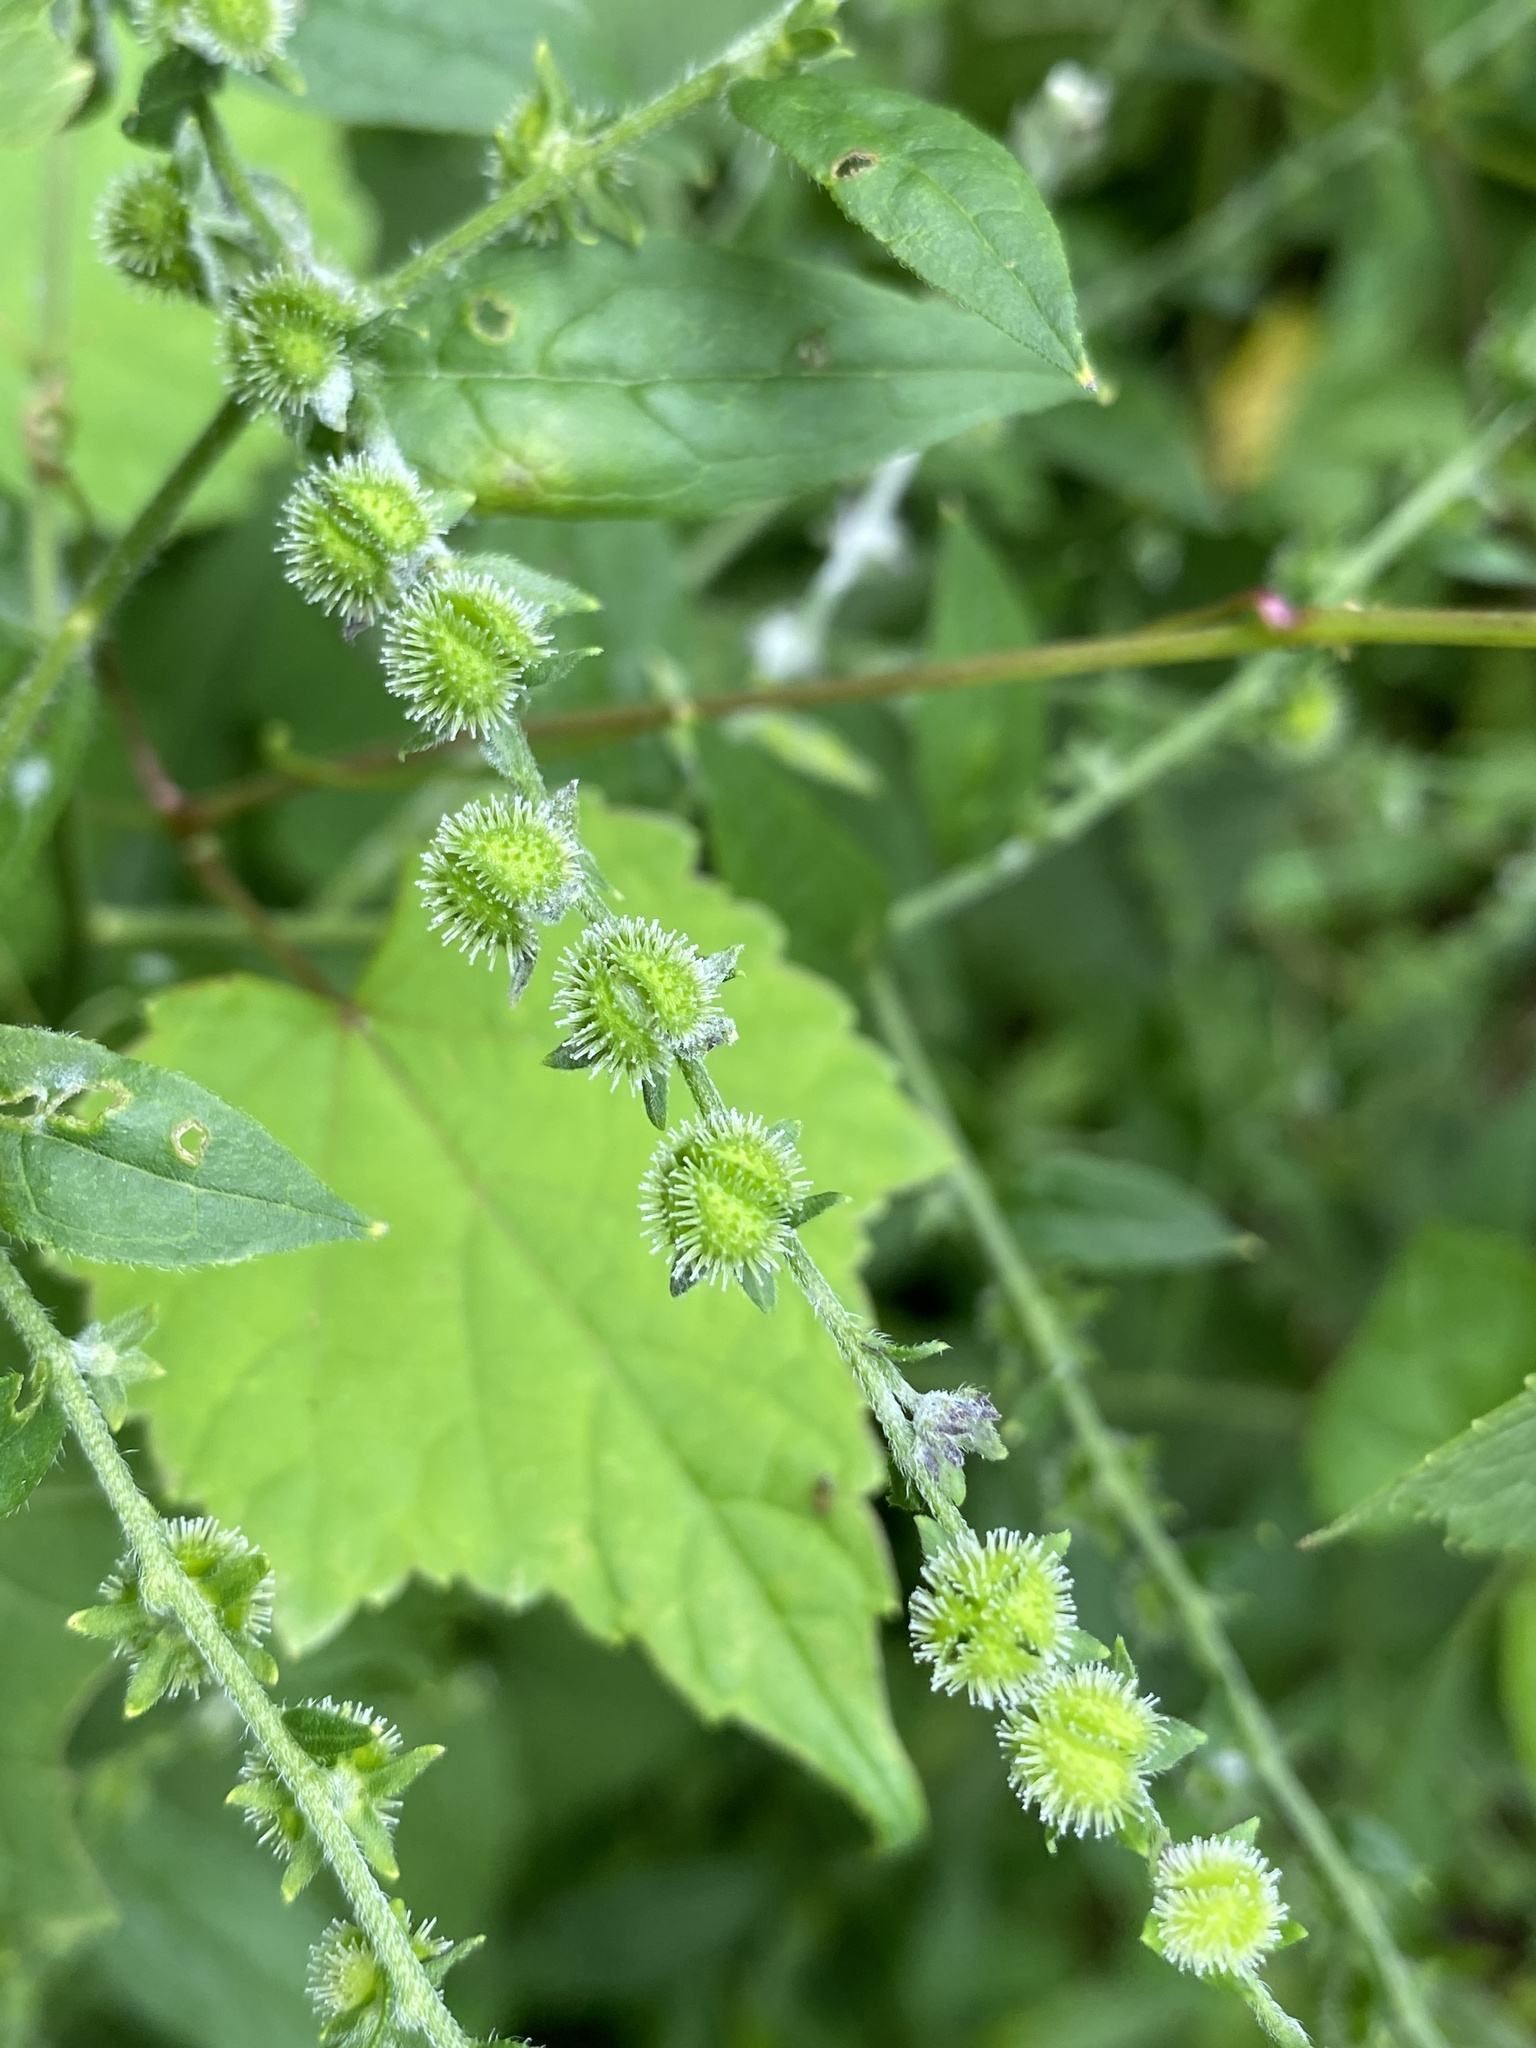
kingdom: Plantae
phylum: Tracheophyta
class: Magnoliopsida
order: Boraginales
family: Boraginaceae
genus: Hackelia
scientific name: Hackelia virginiana
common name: Beggar's-lice
